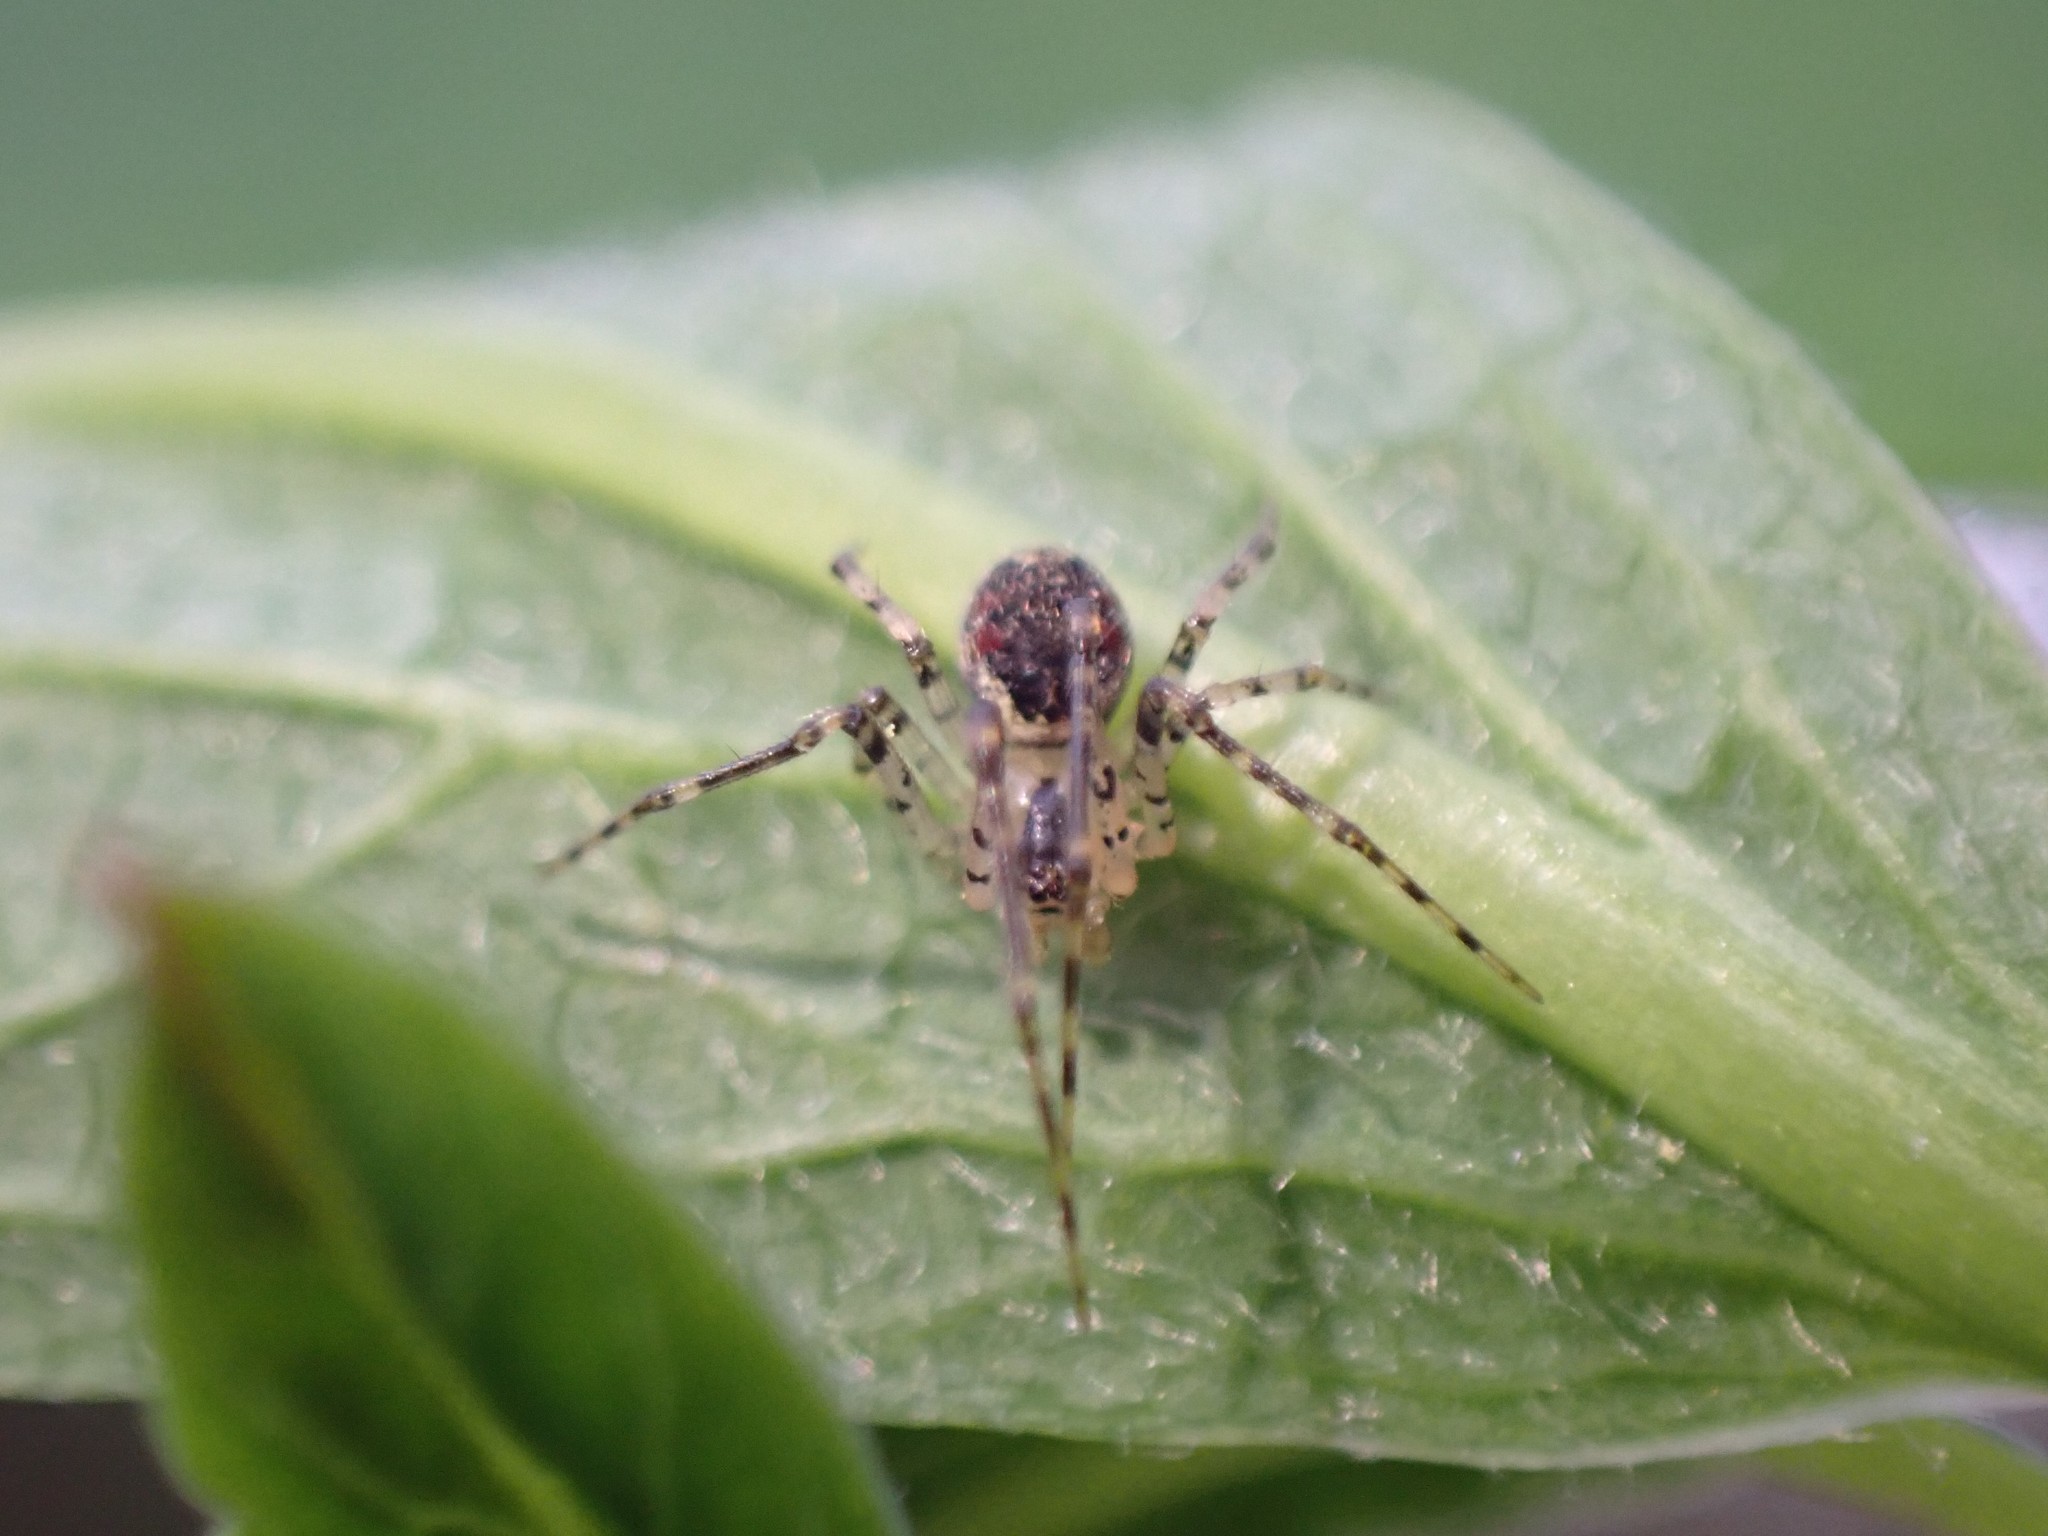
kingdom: Animalia
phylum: Arthropoda
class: Arachnida
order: Araneae
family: Theridiidae
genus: Platnickina
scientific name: Platnickina tincta
